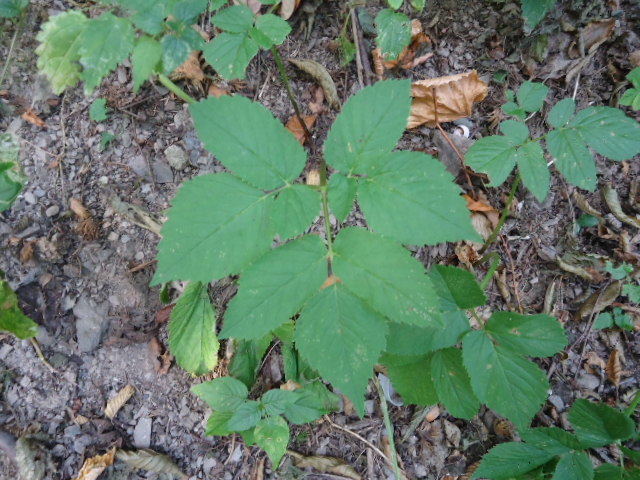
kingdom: Plantae
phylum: Tracheophyta
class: Magnoliopsida
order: Apiales
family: Apiaceae
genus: Aegopodium
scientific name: Aegopodium podagraria
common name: Ground-elder
